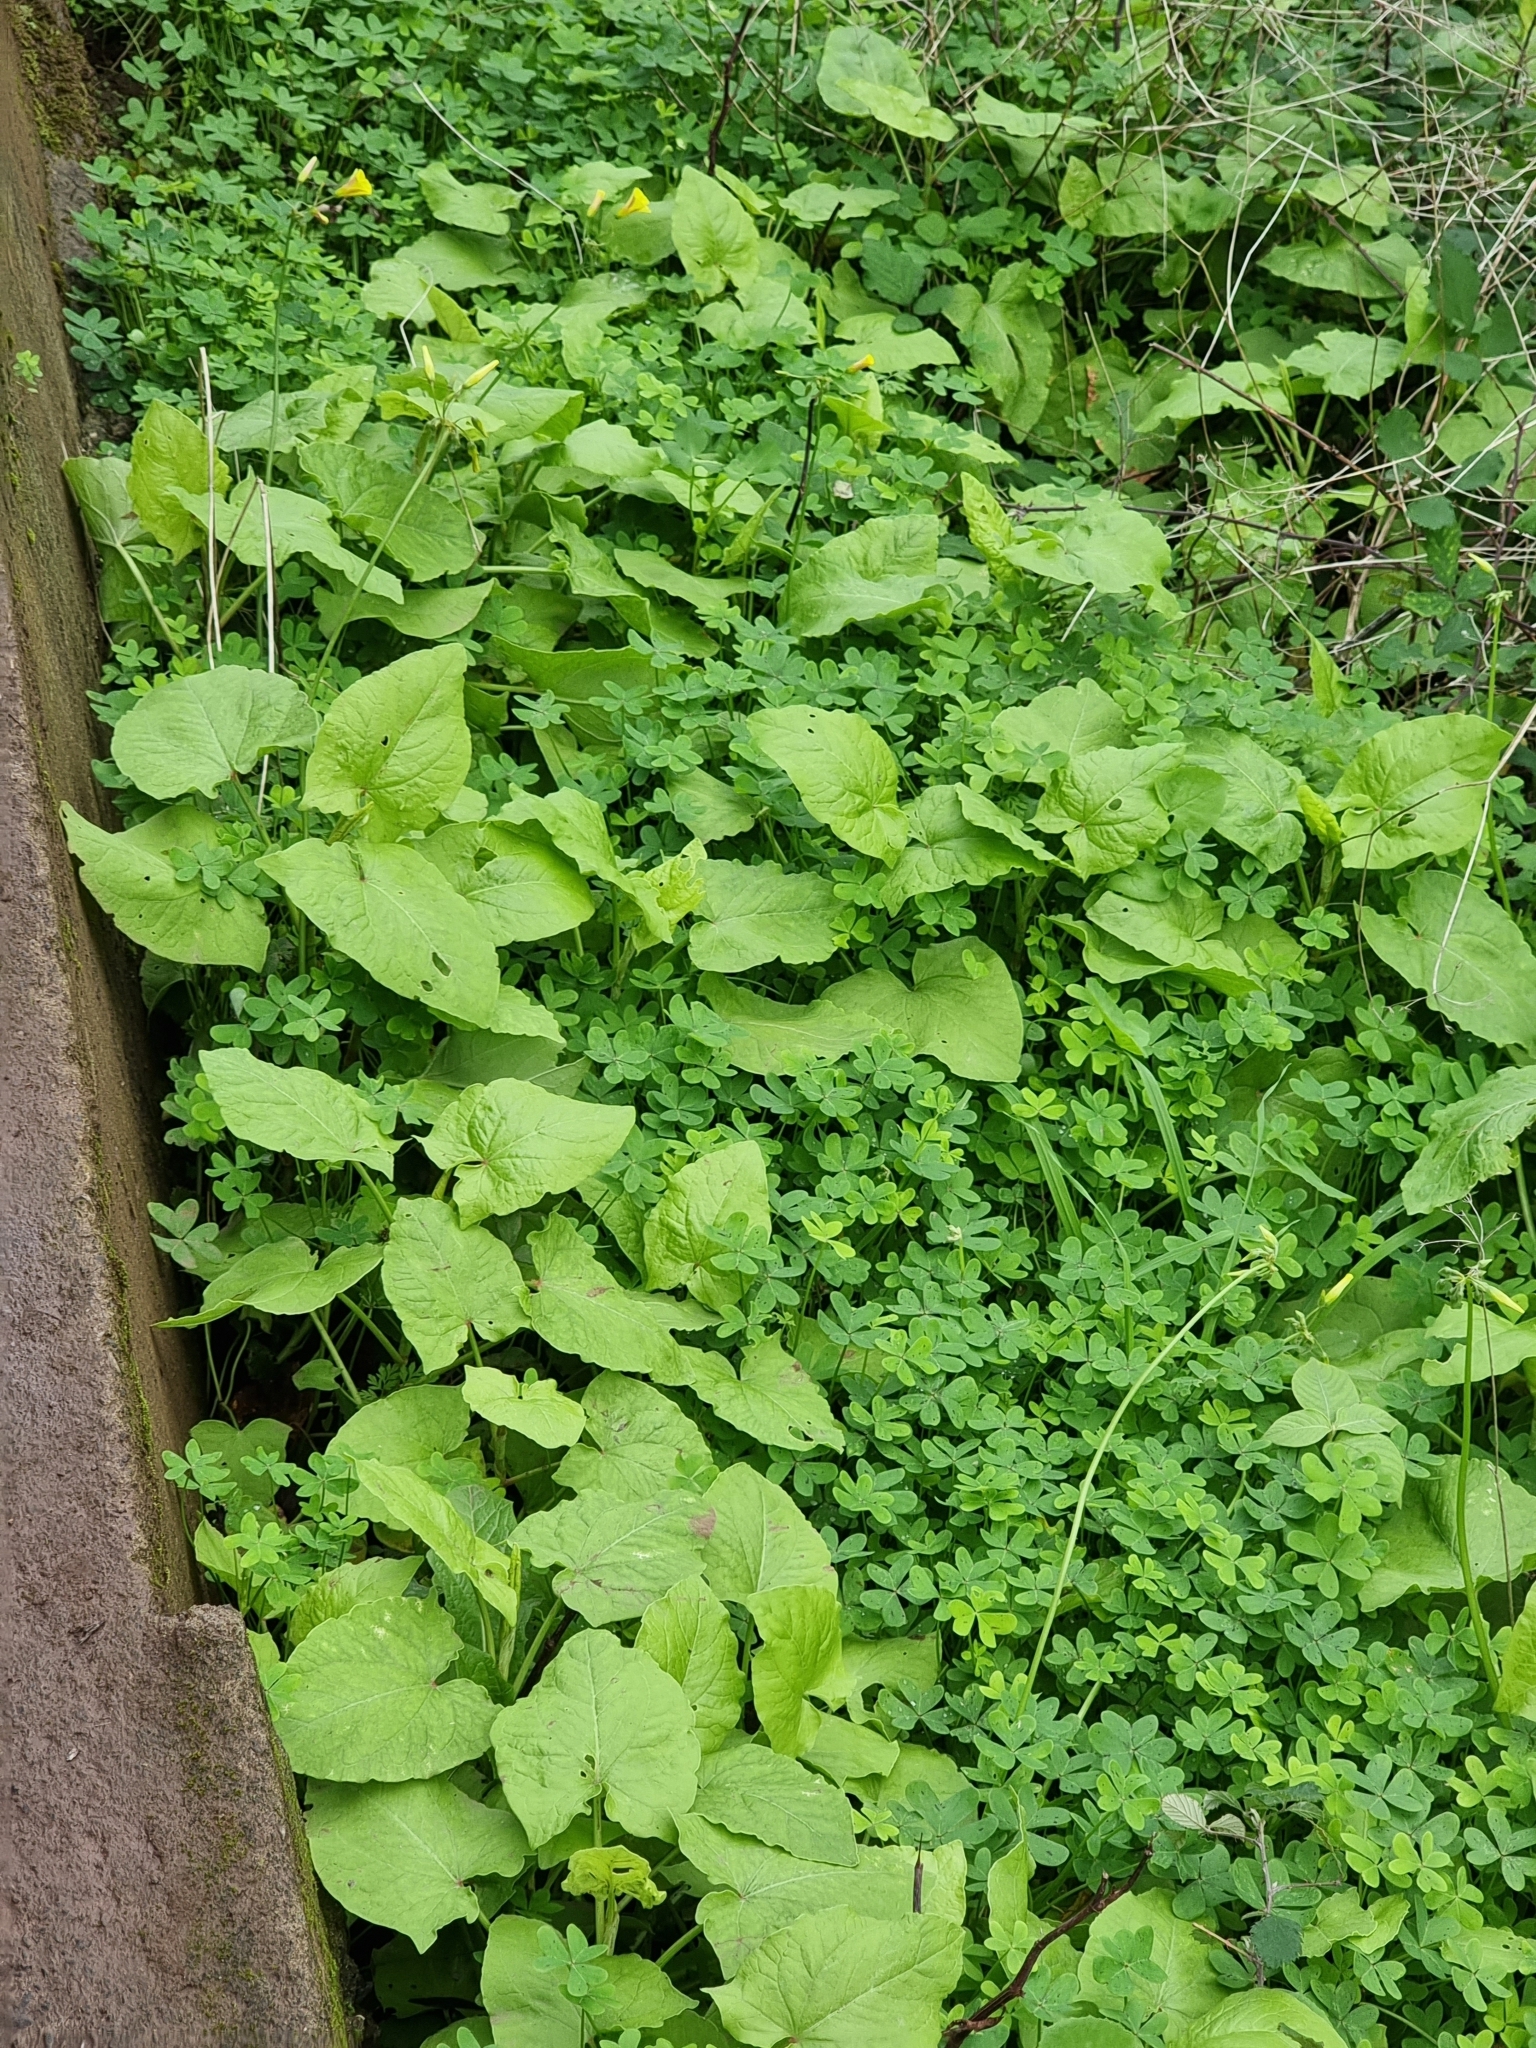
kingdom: Plantae
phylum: Tracheophyta
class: Magnoliopsida
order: Caryophyllales
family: Polygonaceae
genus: Rumex
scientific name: Rumex maderensis
